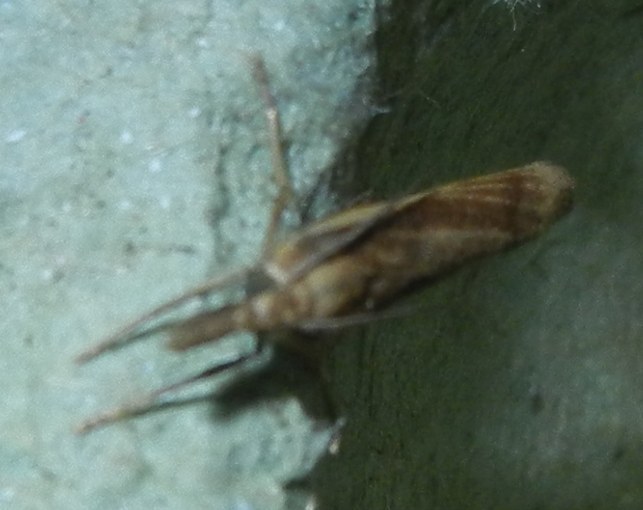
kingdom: Animalia
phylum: Arthropoda
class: Insecta
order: Lepidoptera
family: Crambidae
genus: Agriphila
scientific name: Agriphila tristellus
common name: Common grass-veneer
